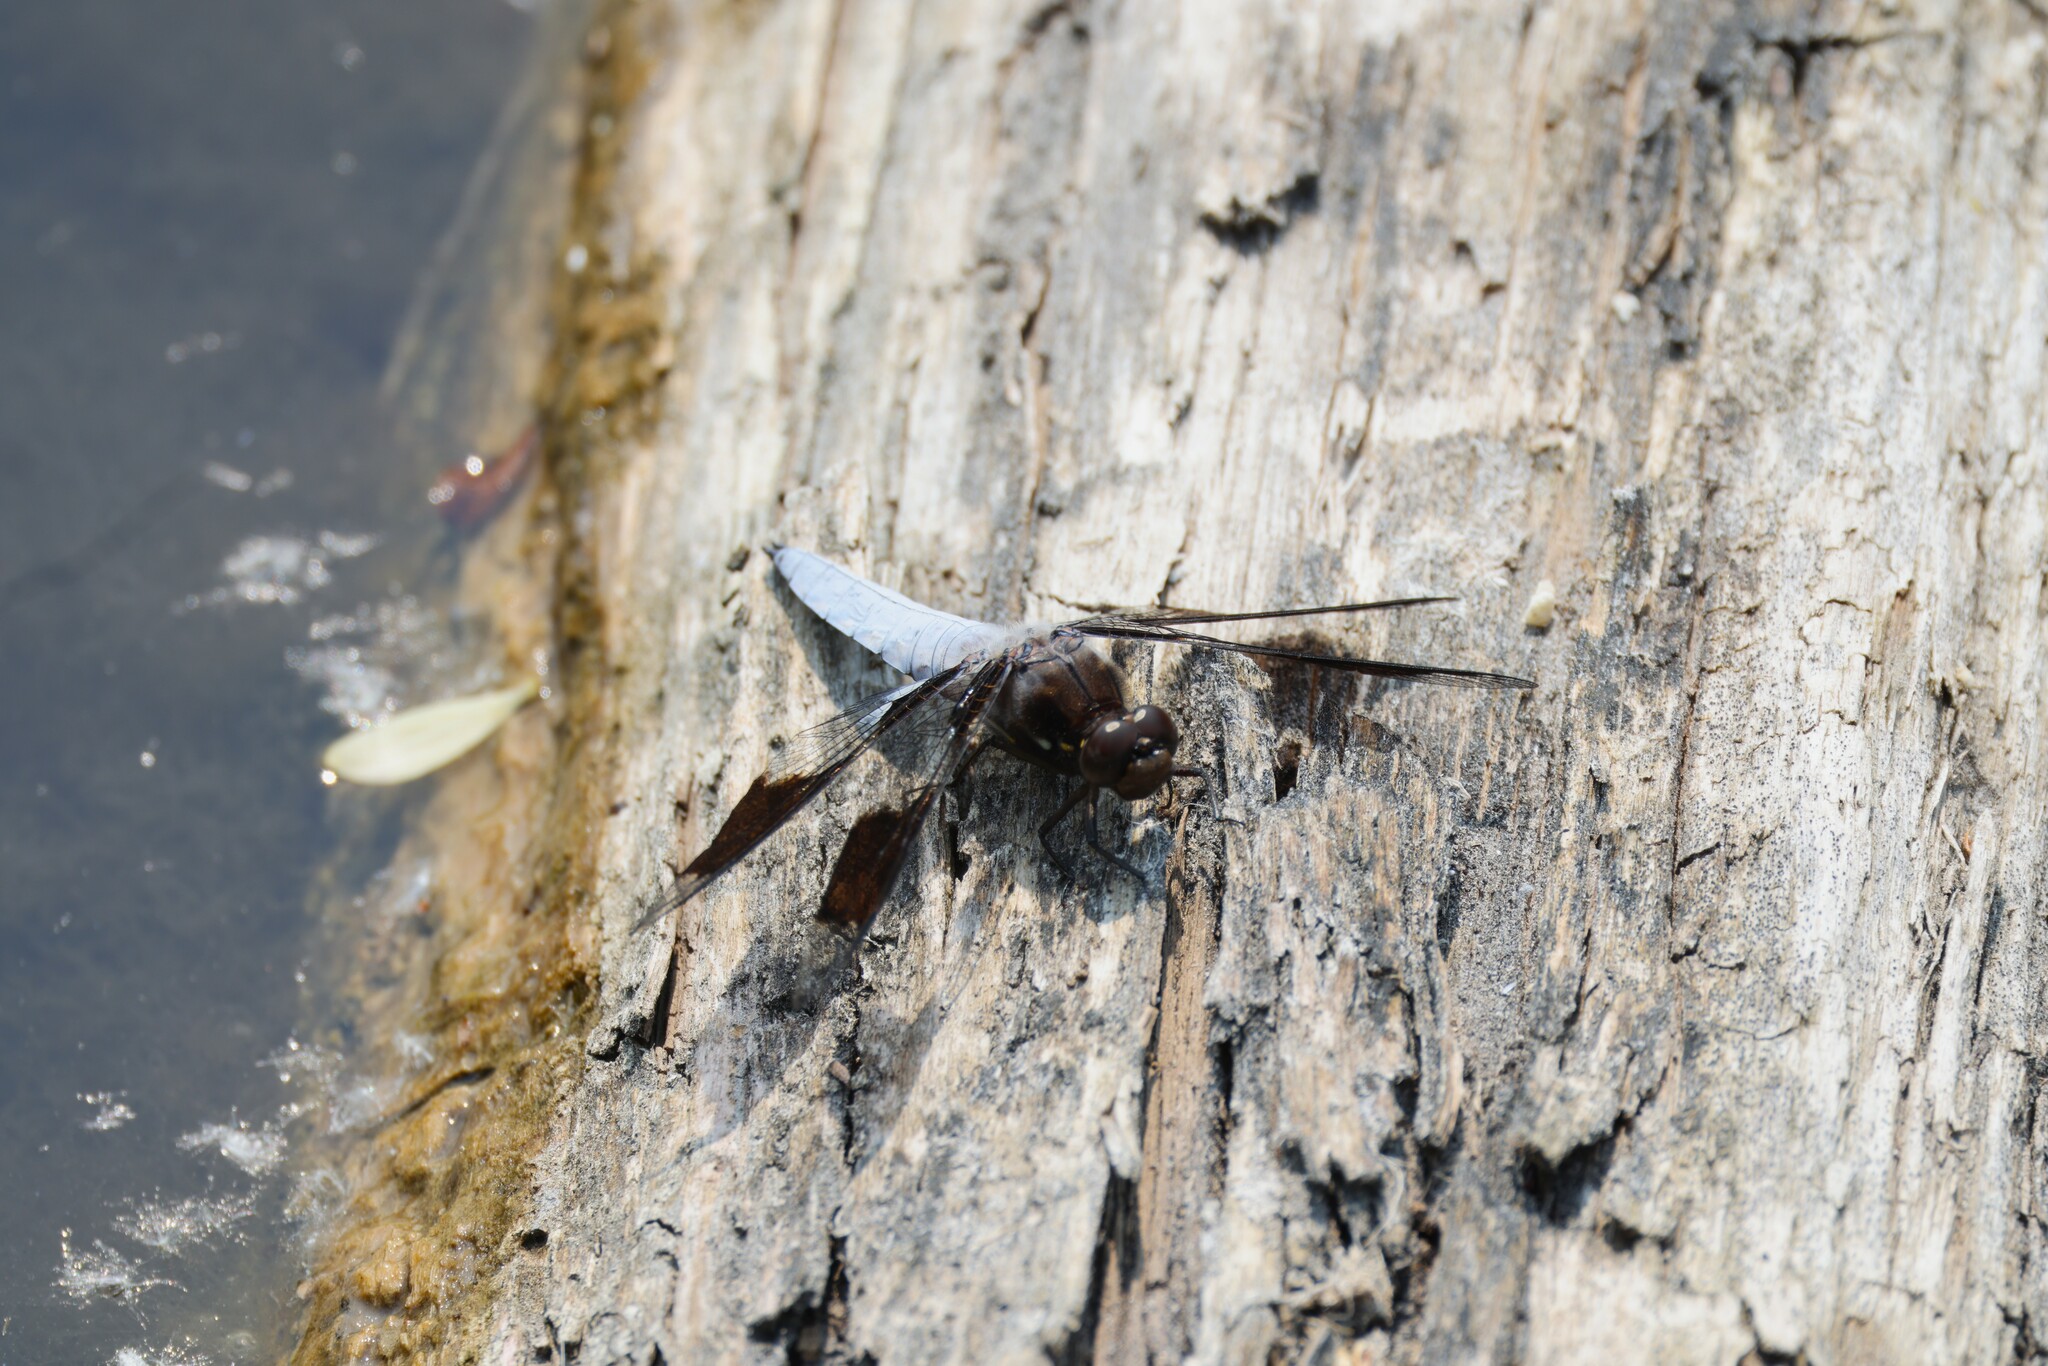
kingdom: Animalia
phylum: Arthropoda
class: Insecta
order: Odonata
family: Libellulidae
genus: Plathemis
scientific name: Plathemis lydia
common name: Common whitetail
